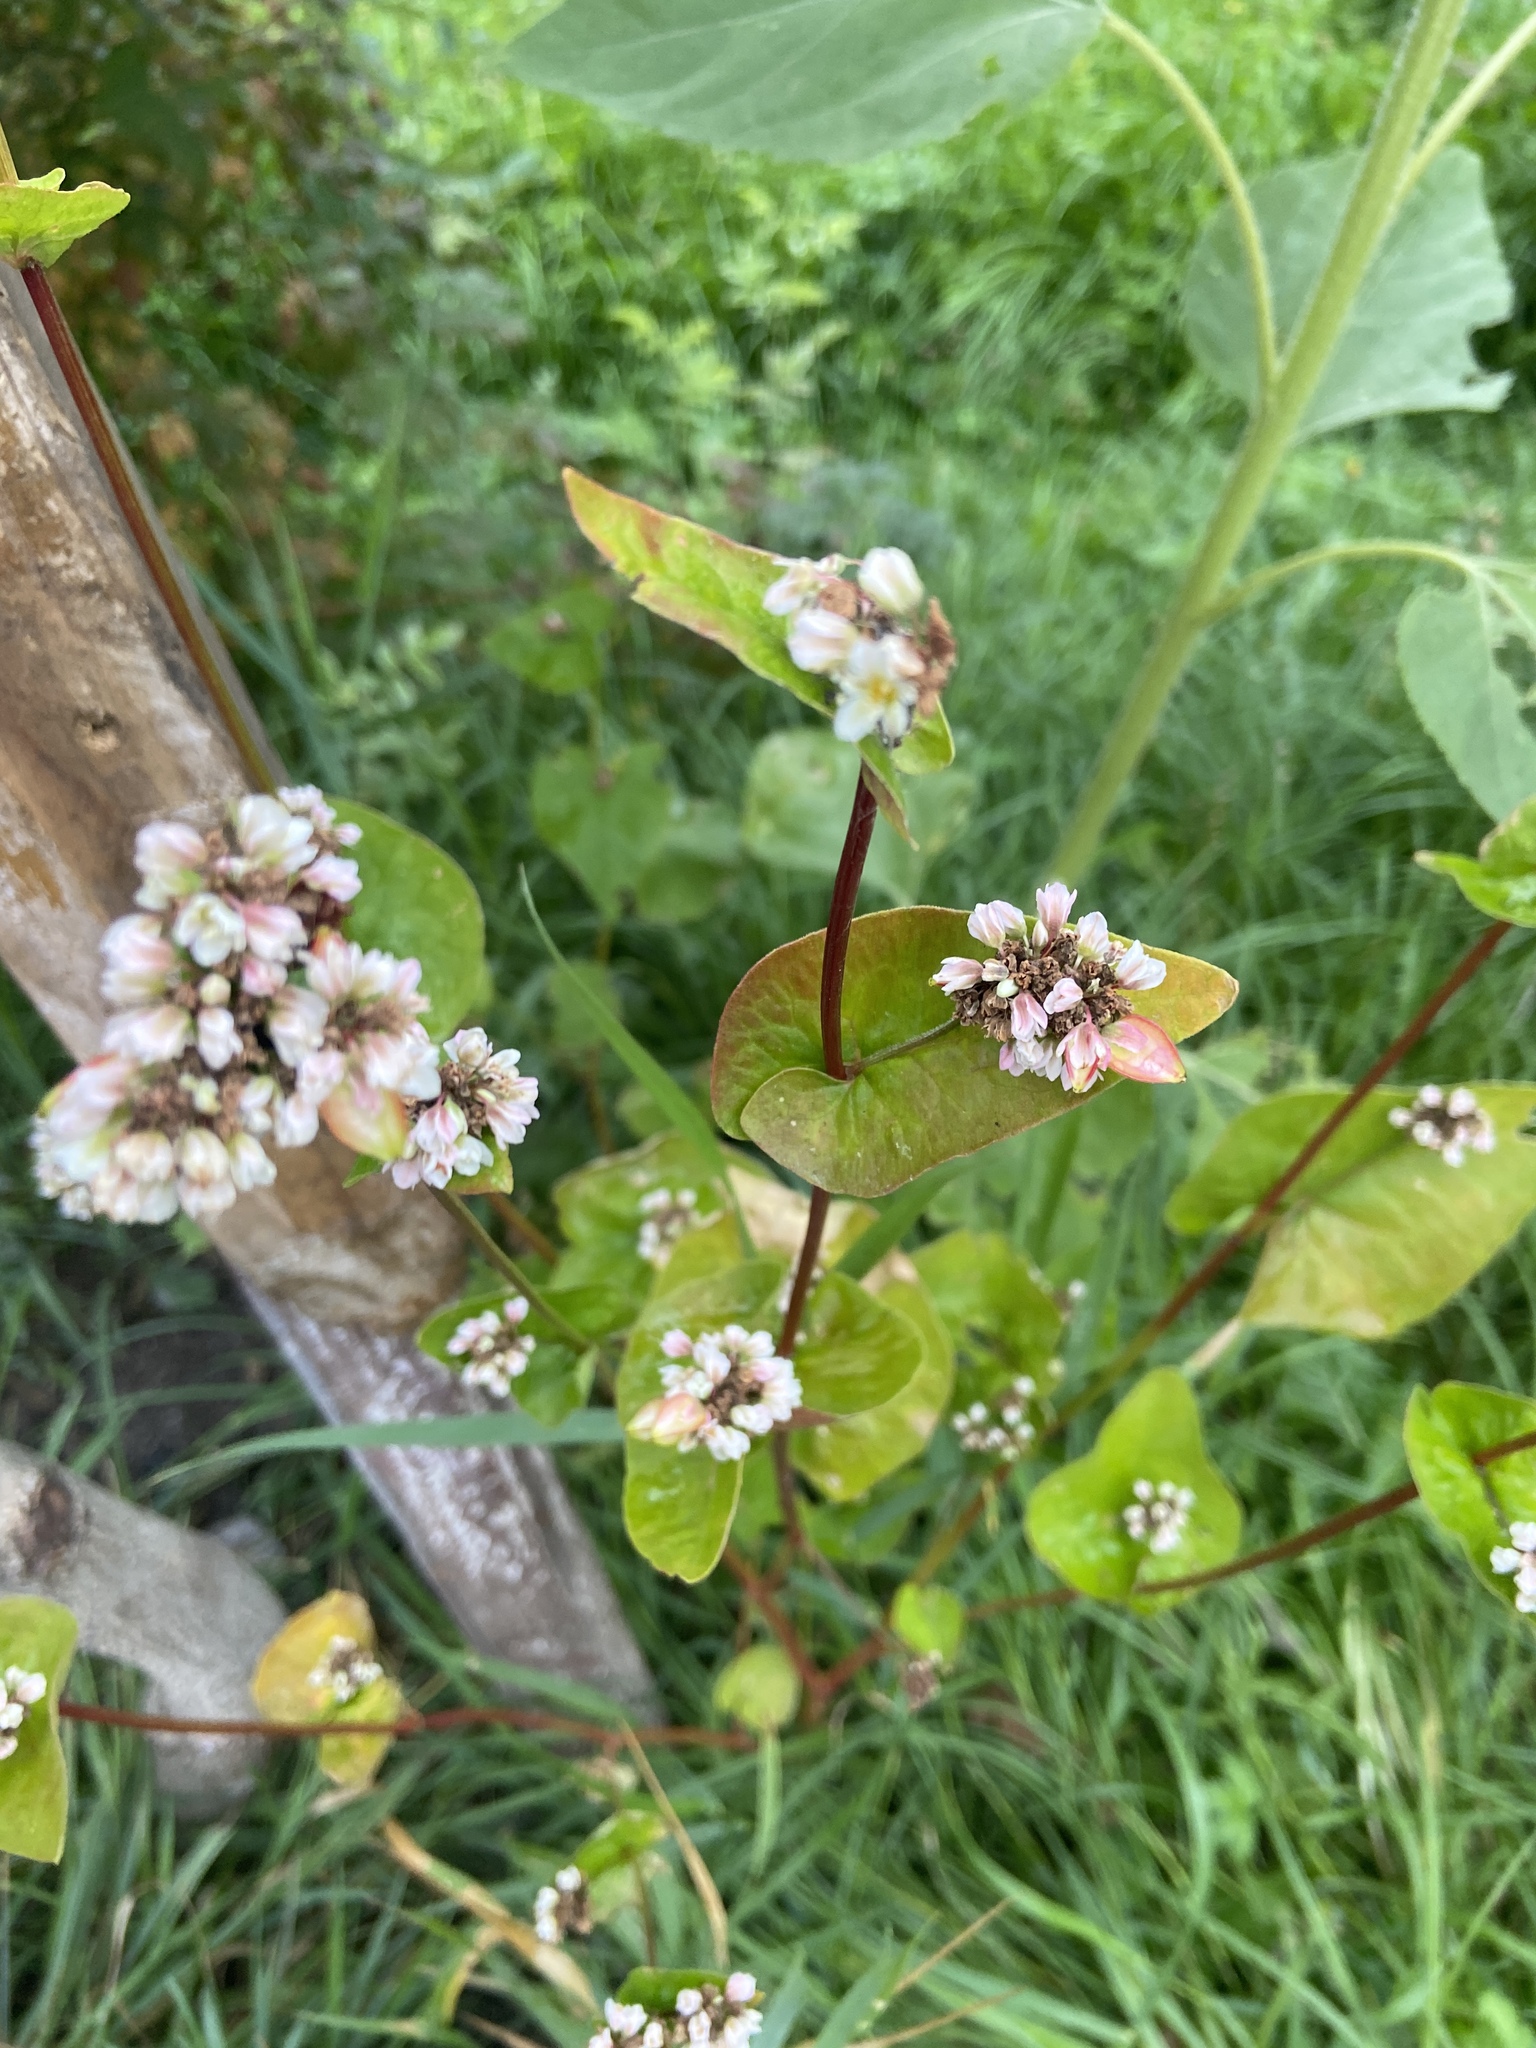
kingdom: Plantae
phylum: Tracheophyta
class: Magnoliopsida
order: Caryophyllales
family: Polygonaceae
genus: Fagopyrum
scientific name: Fagopyrum esculentum
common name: Buckwheat
